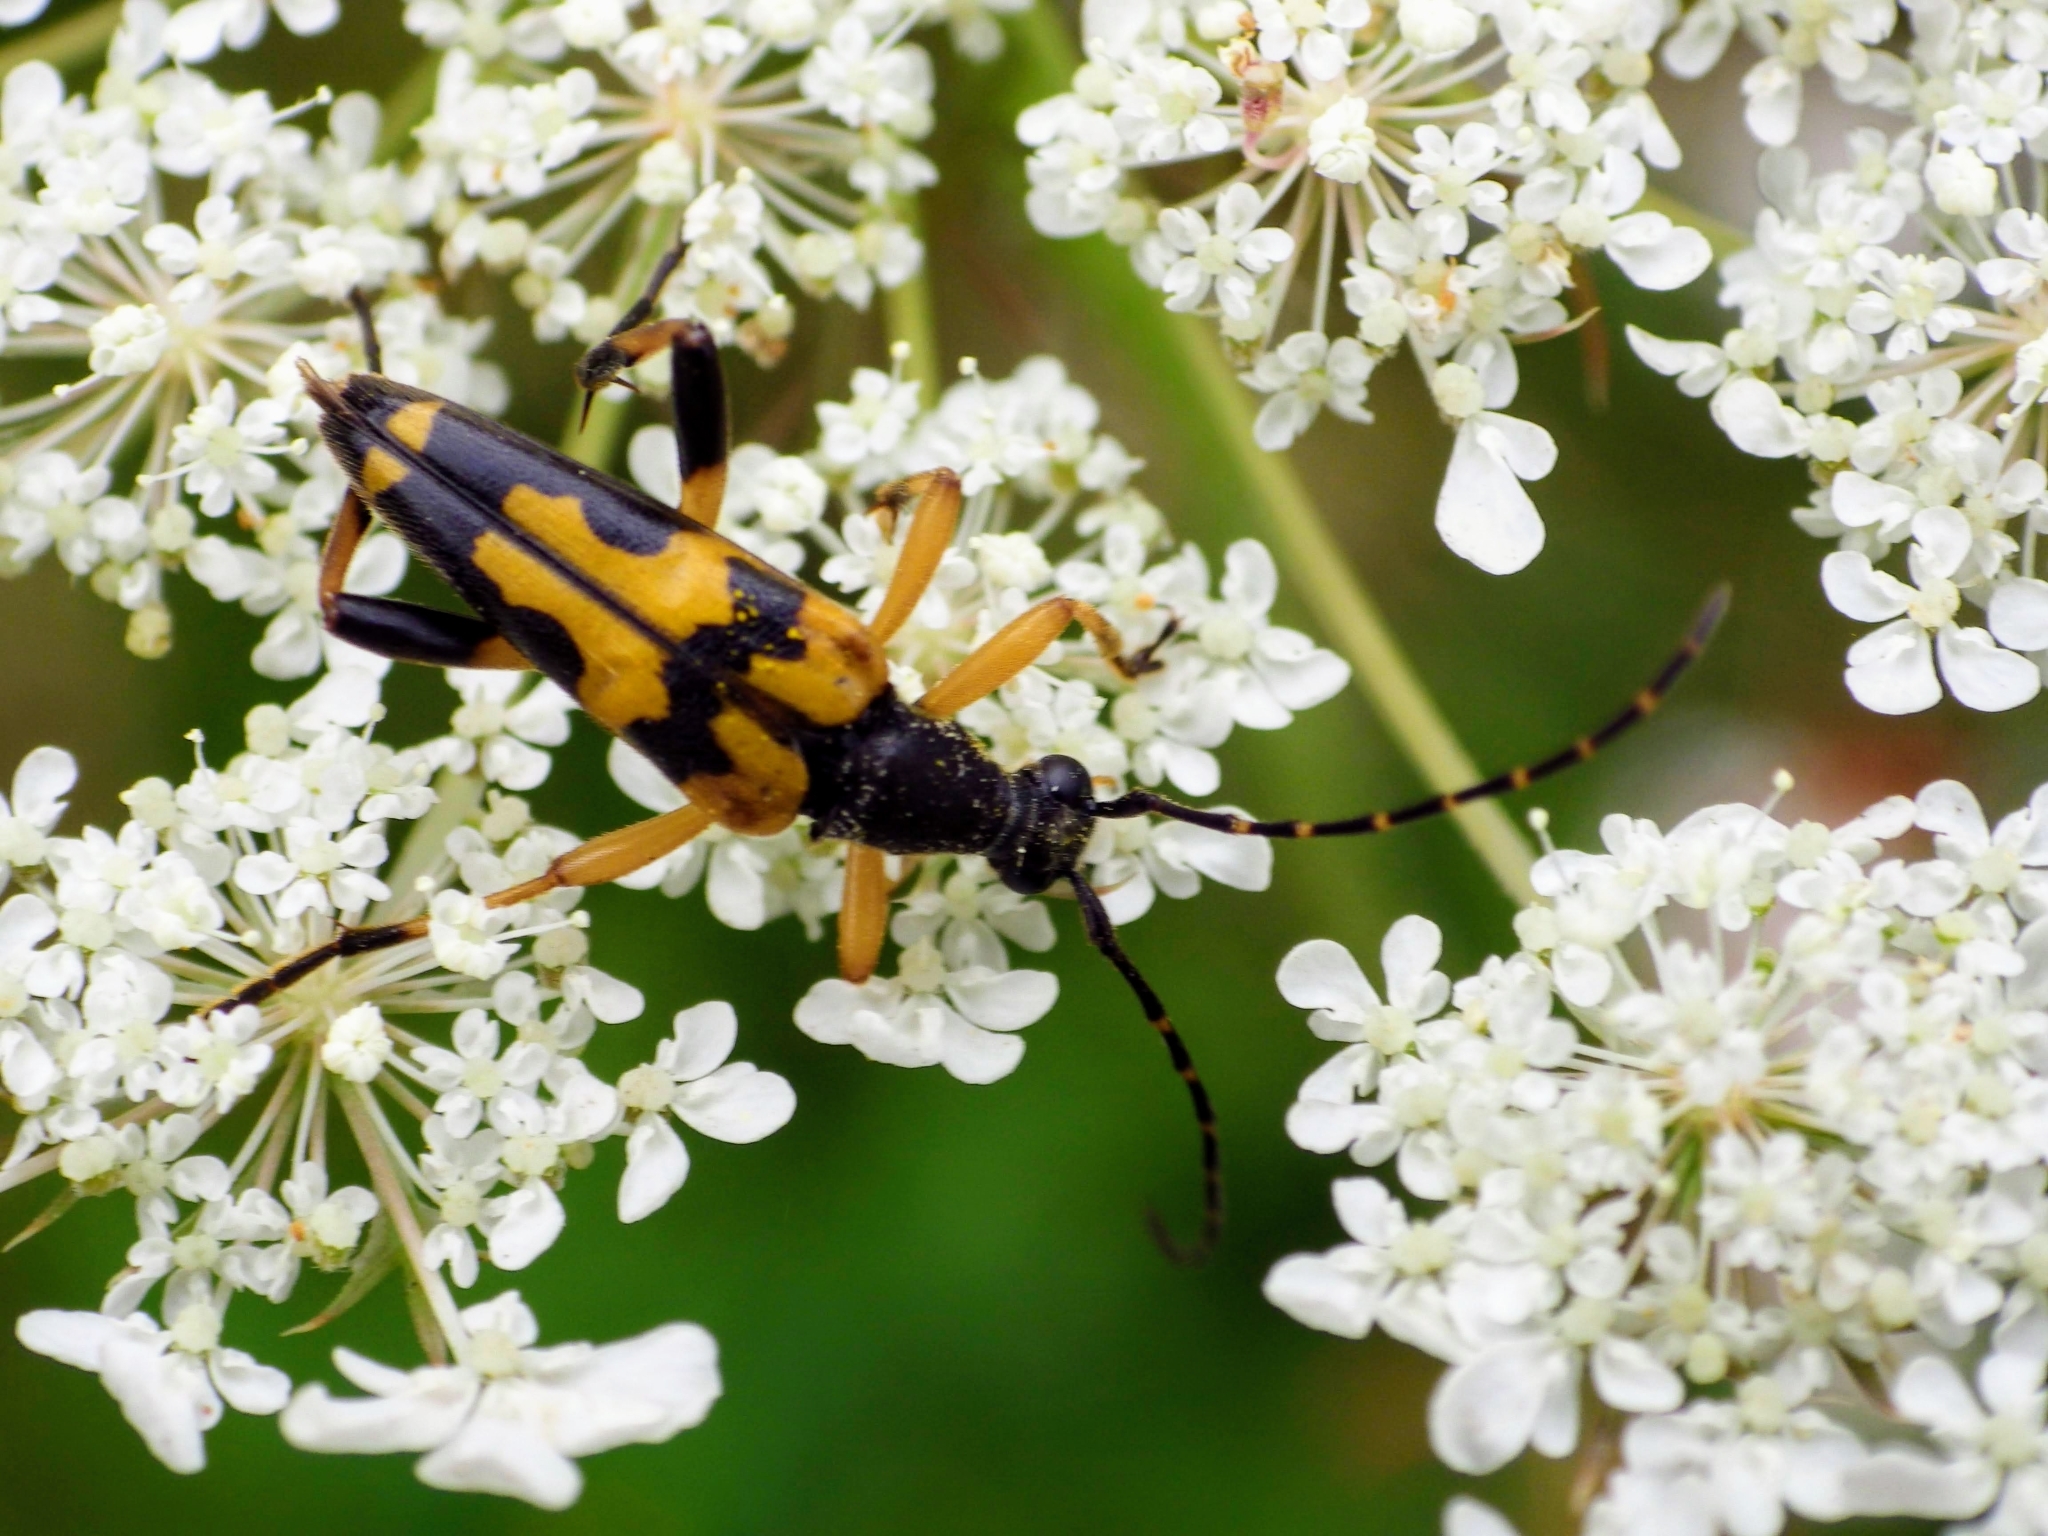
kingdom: Animalia
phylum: Arthropoda
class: Insecta
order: Coleoptera
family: Cerambycidae
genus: Rutpela
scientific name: Rutpela maculata
